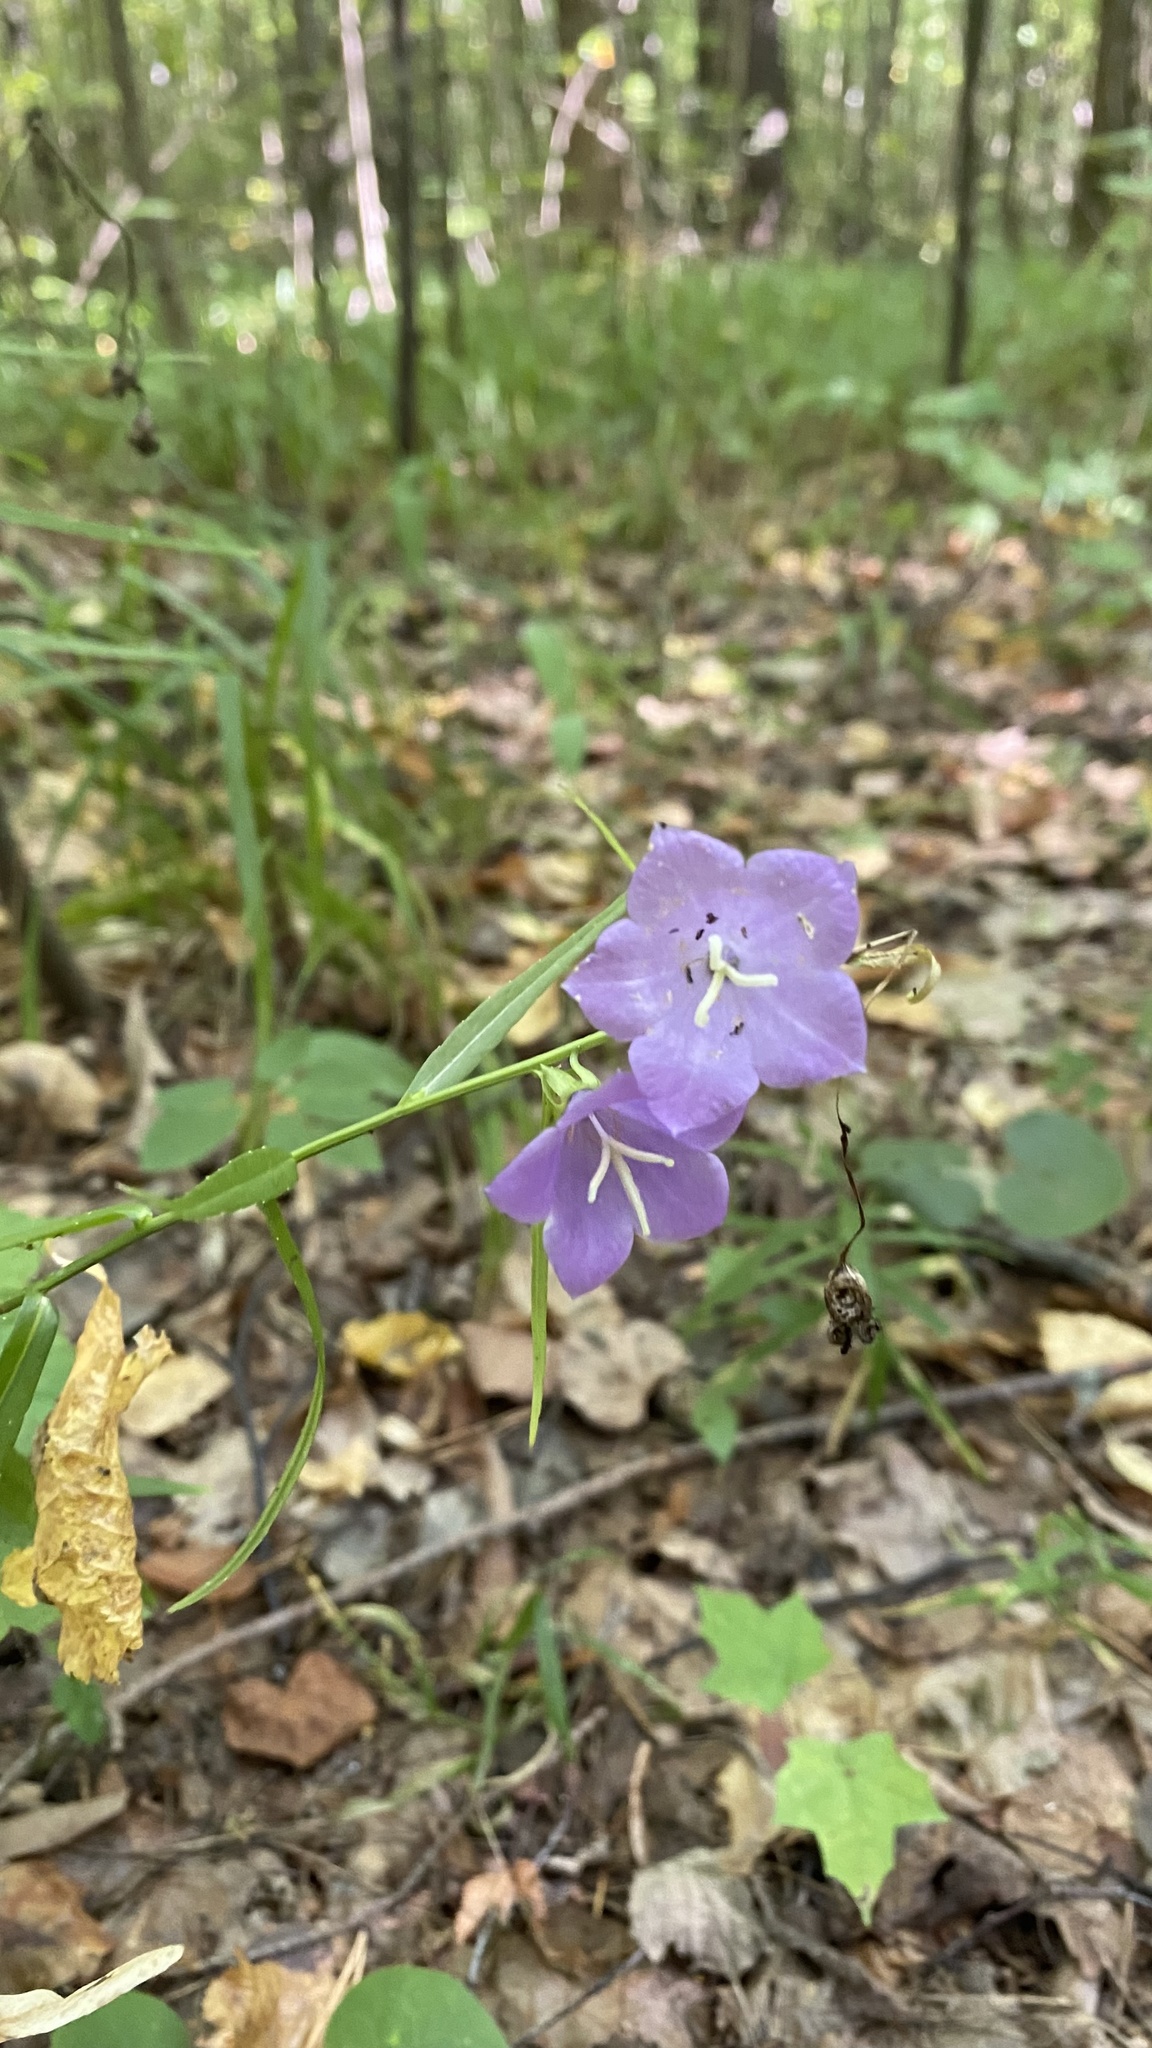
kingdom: Plantae
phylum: Tracheophyta
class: Magnoliopsida
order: Asterales
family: Campanulaceae
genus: Campanula
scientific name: Campanula persicifolia
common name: Peach-leaved bellflower
